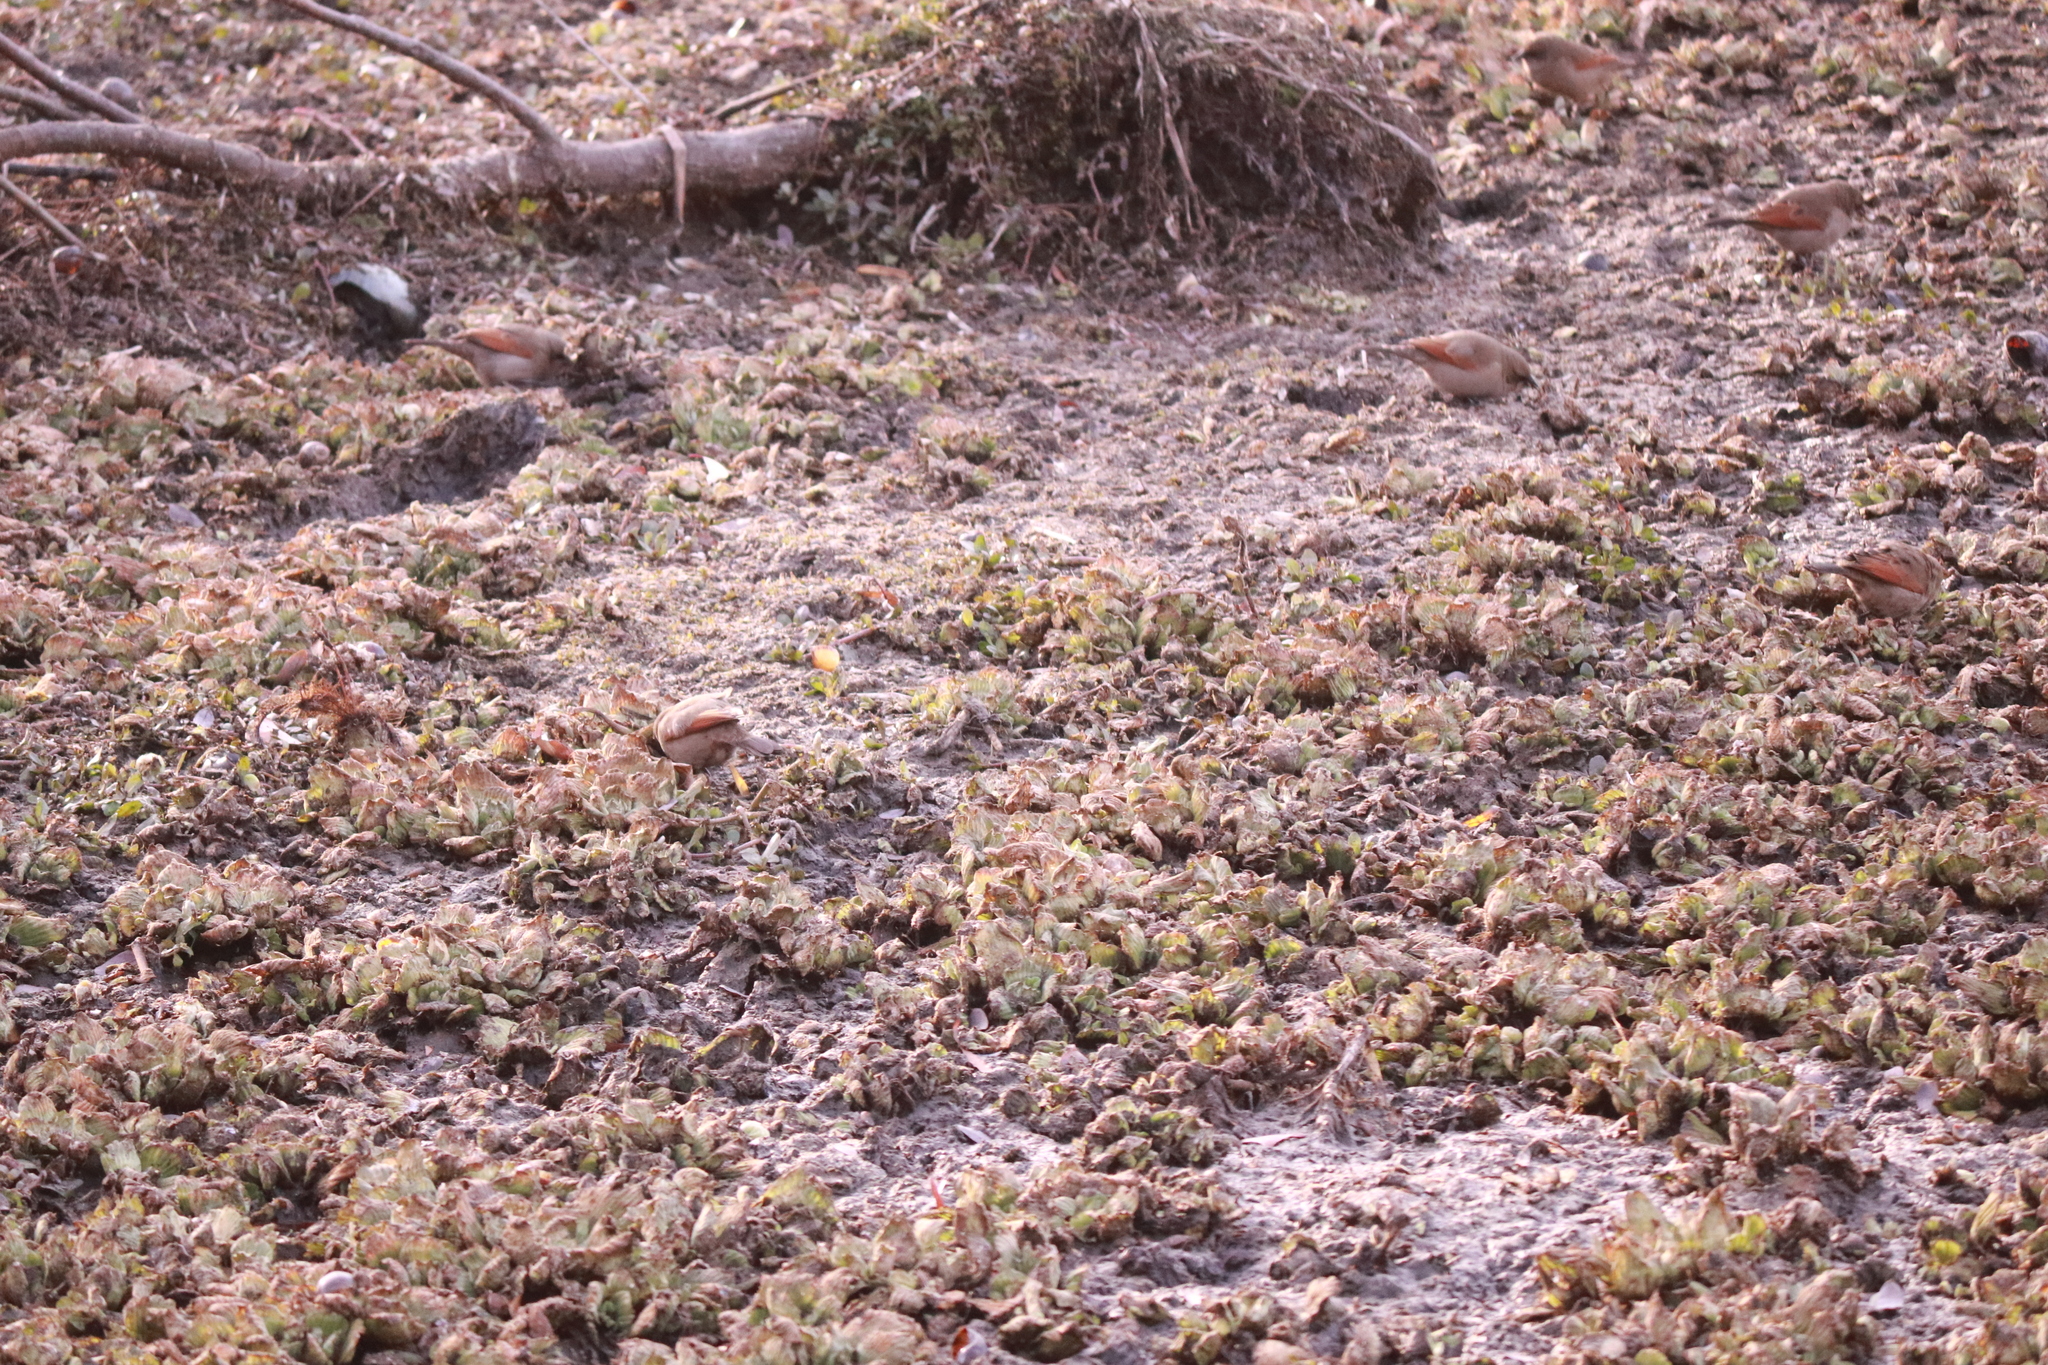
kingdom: Animalia
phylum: Chordata
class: Aves
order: Passeriformes
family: Icteridae
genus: Agelaioides
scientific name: Agelaioides badius
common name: Baywing
